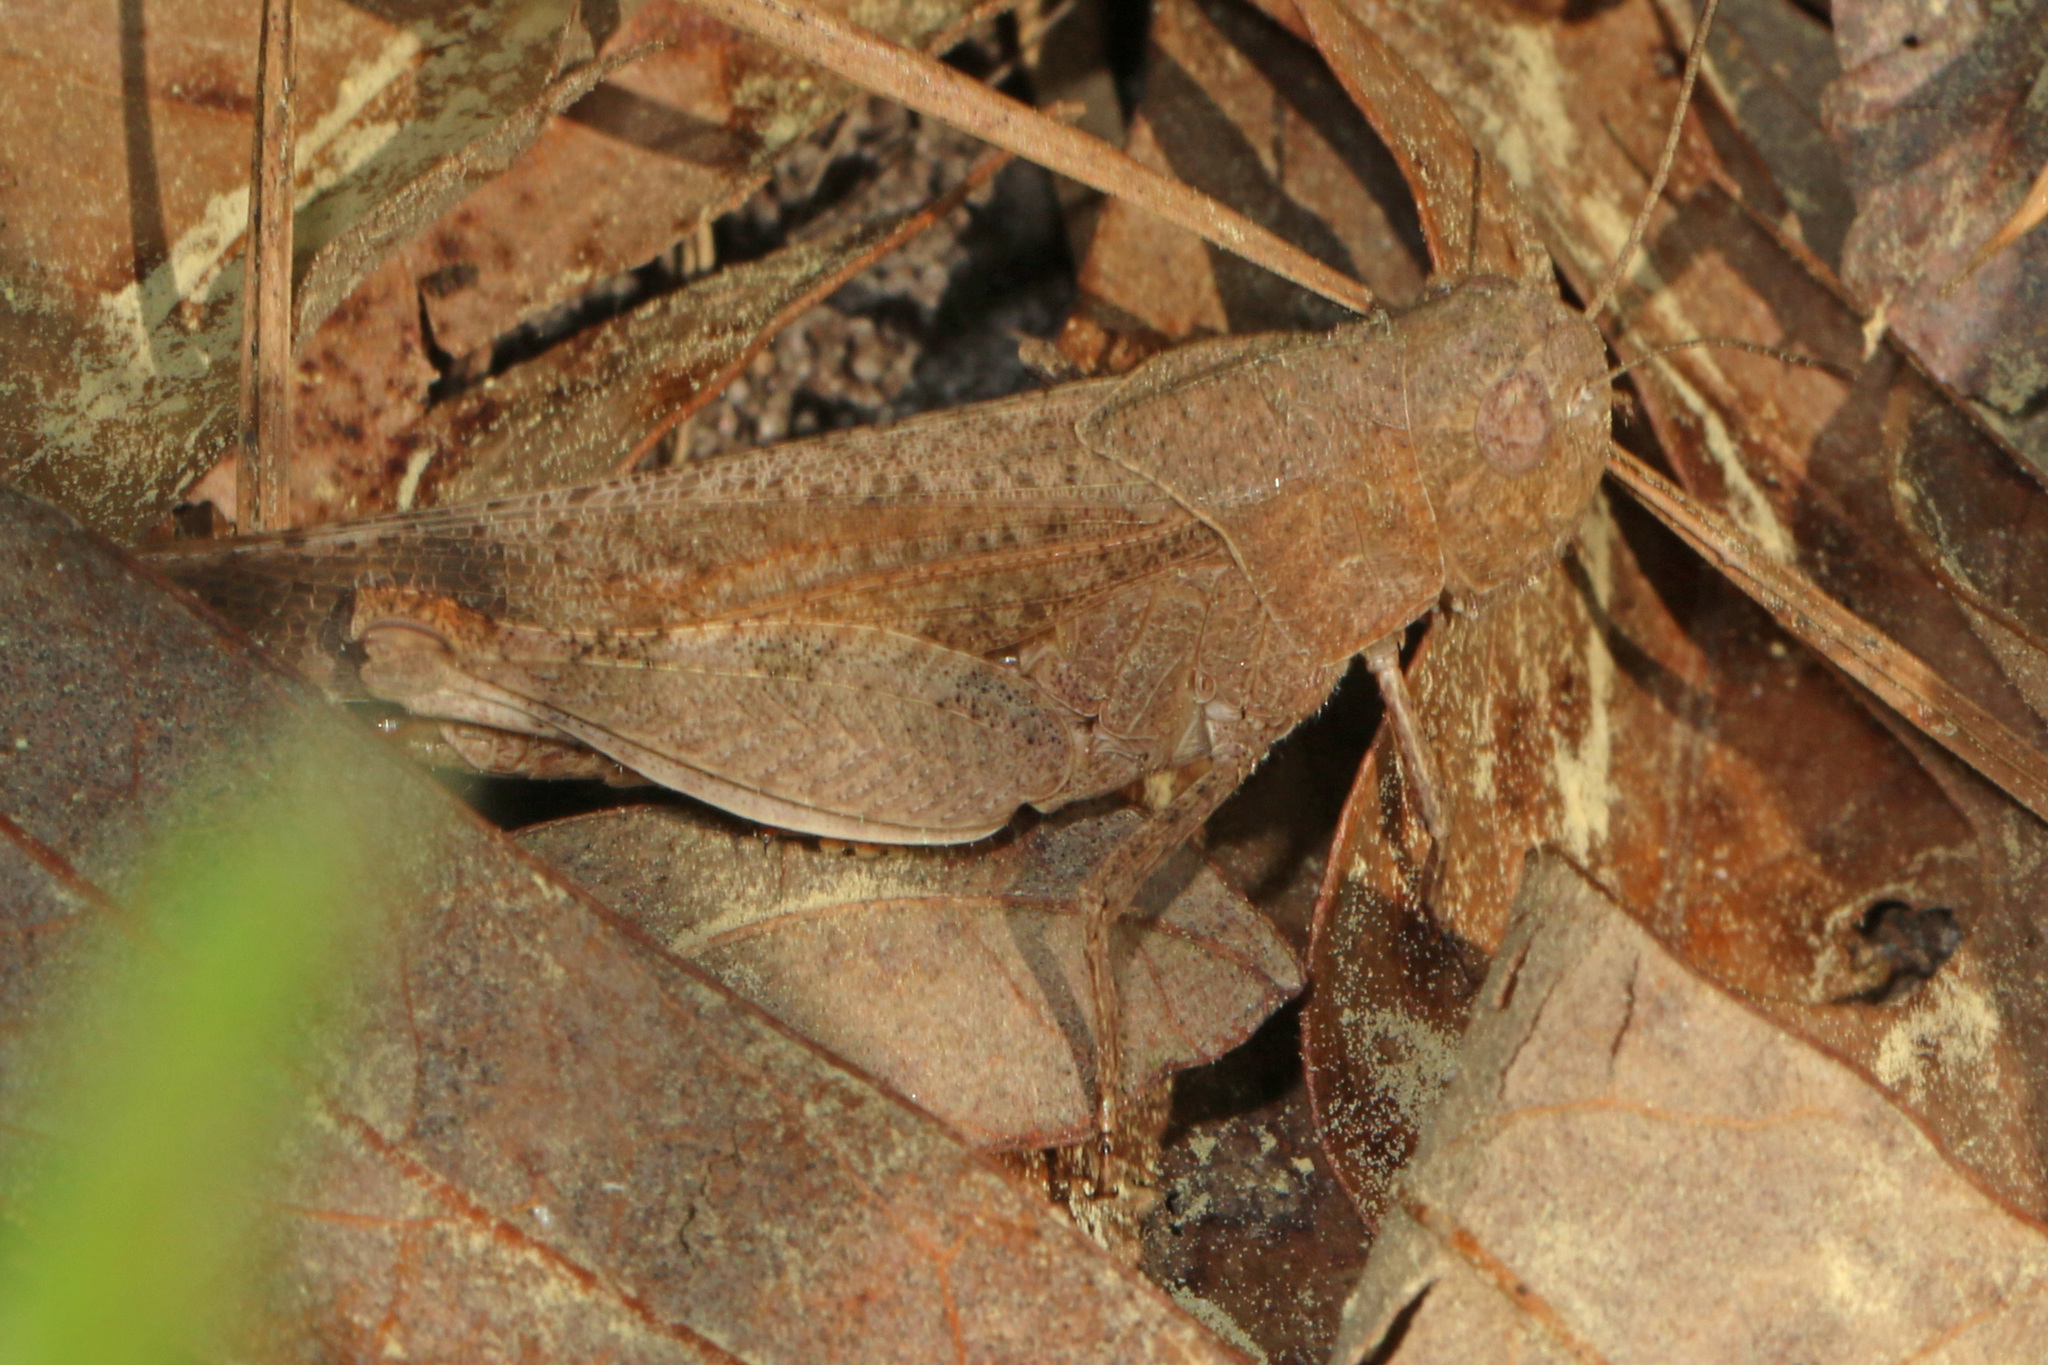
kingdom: Animalia
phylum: Arthropoda
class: Insecta
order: Orthoptera
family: Acrididae
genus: Arphia
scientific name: Arphia sulphurea
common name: Spring yellow-winged locust
